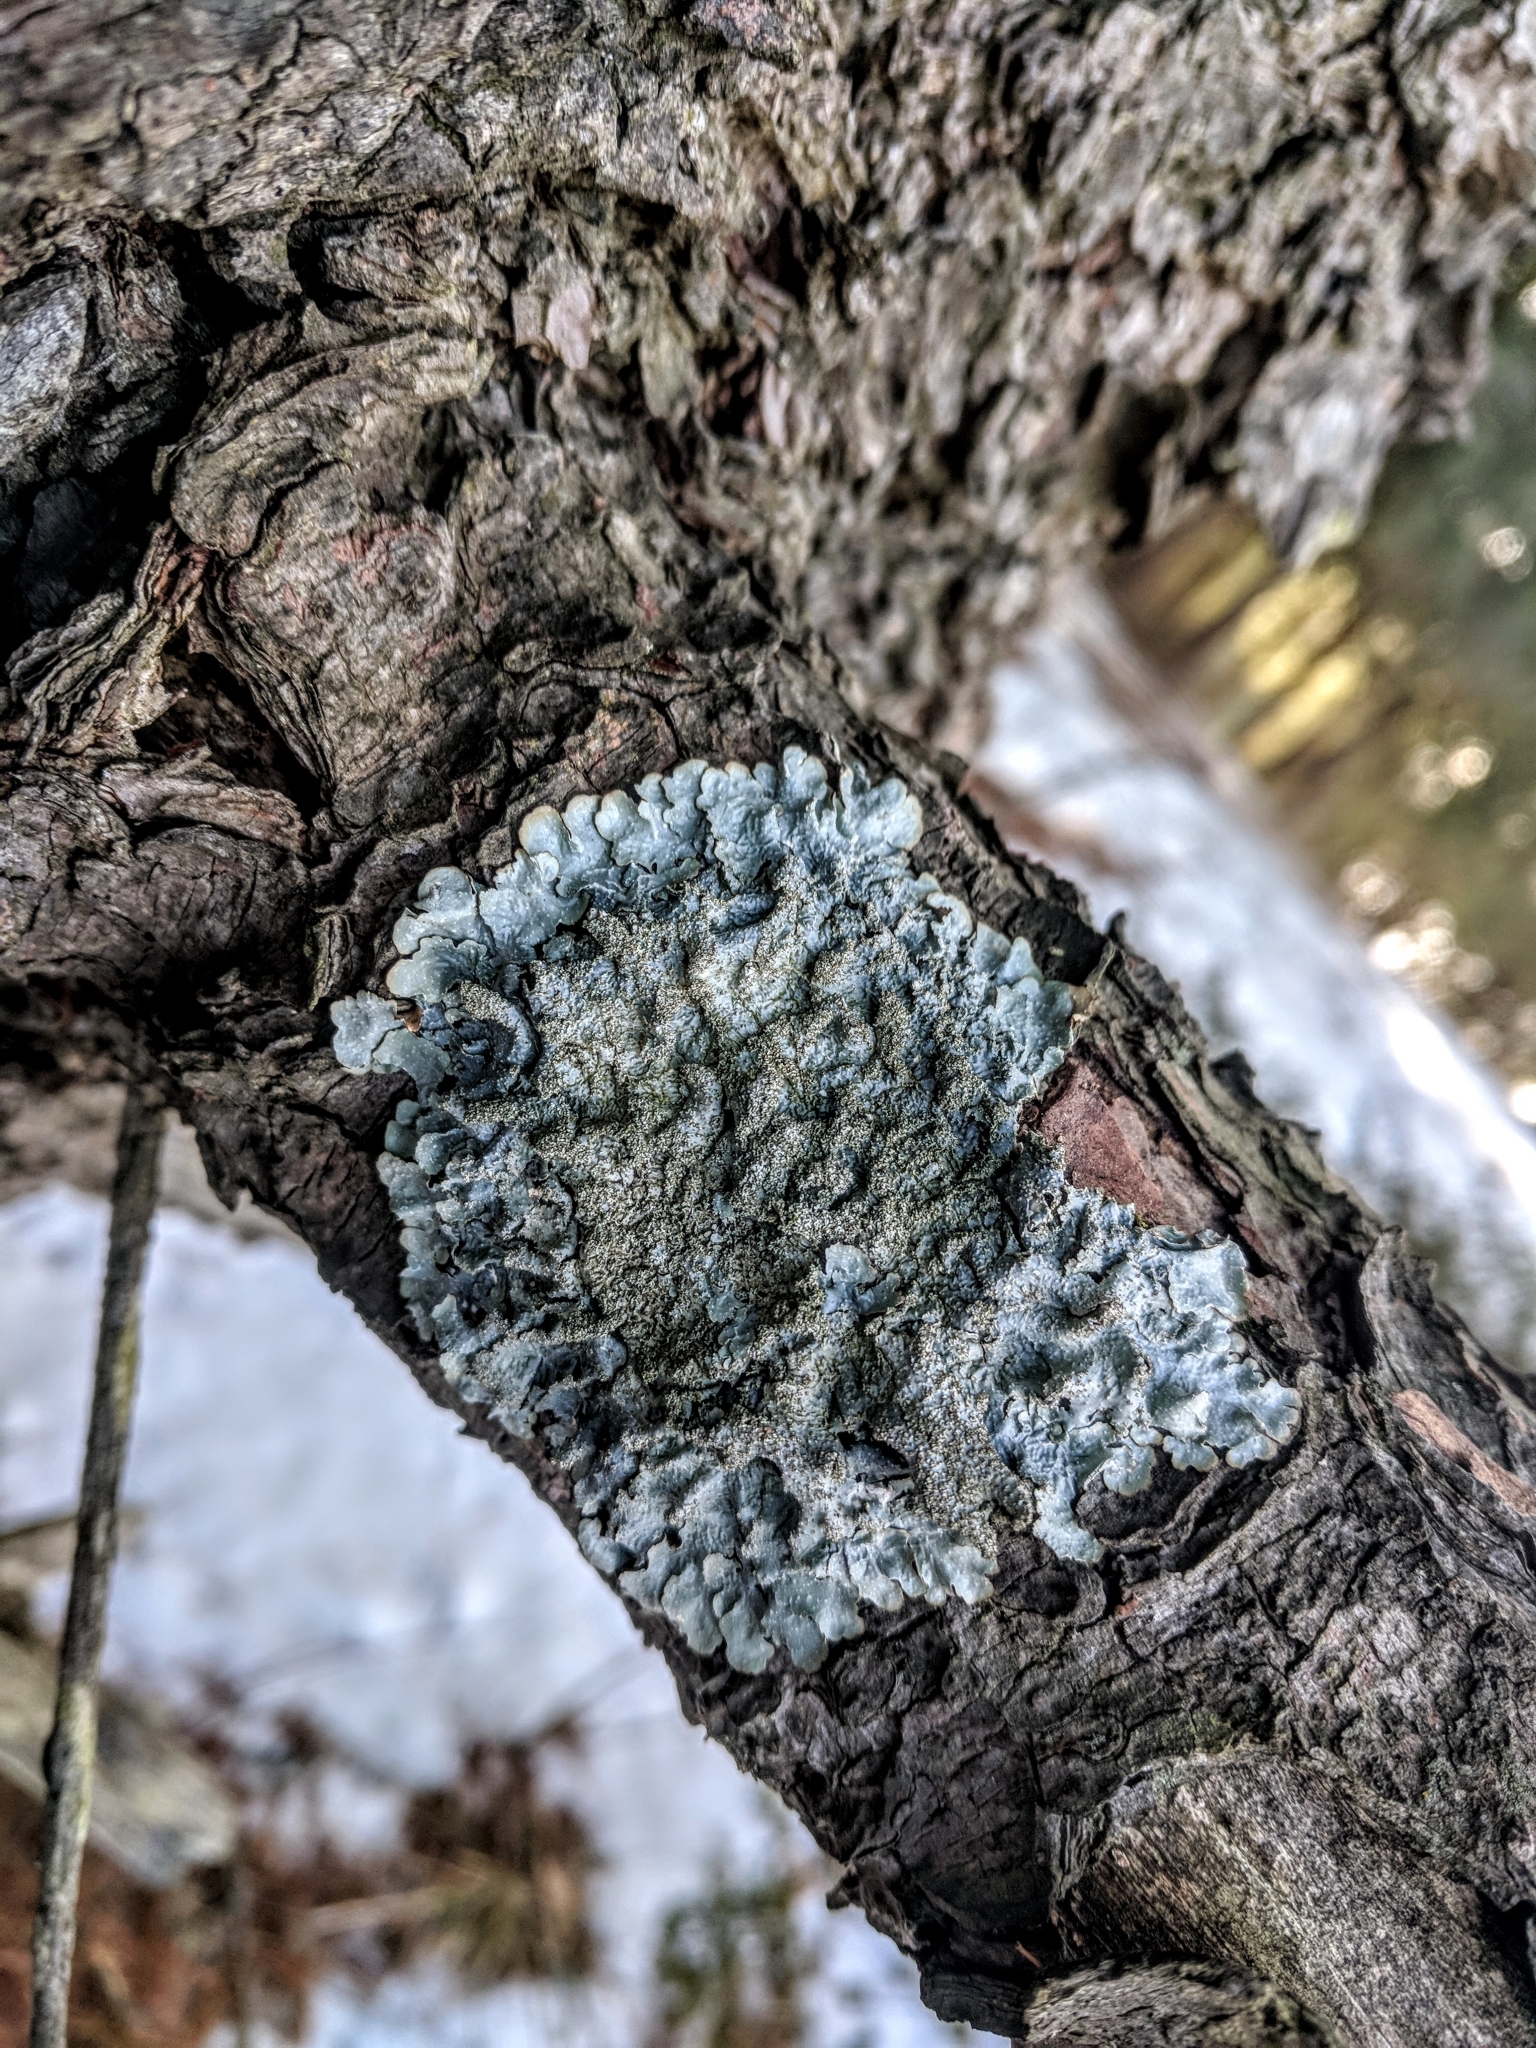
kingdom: Fungi
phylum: Ascomycota
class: Lecanoromycetes
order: Lecanorales
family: Parmeliaceae
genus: Punctelia
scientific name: Punctelia rudecta
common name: Rough speckled shield lichen
